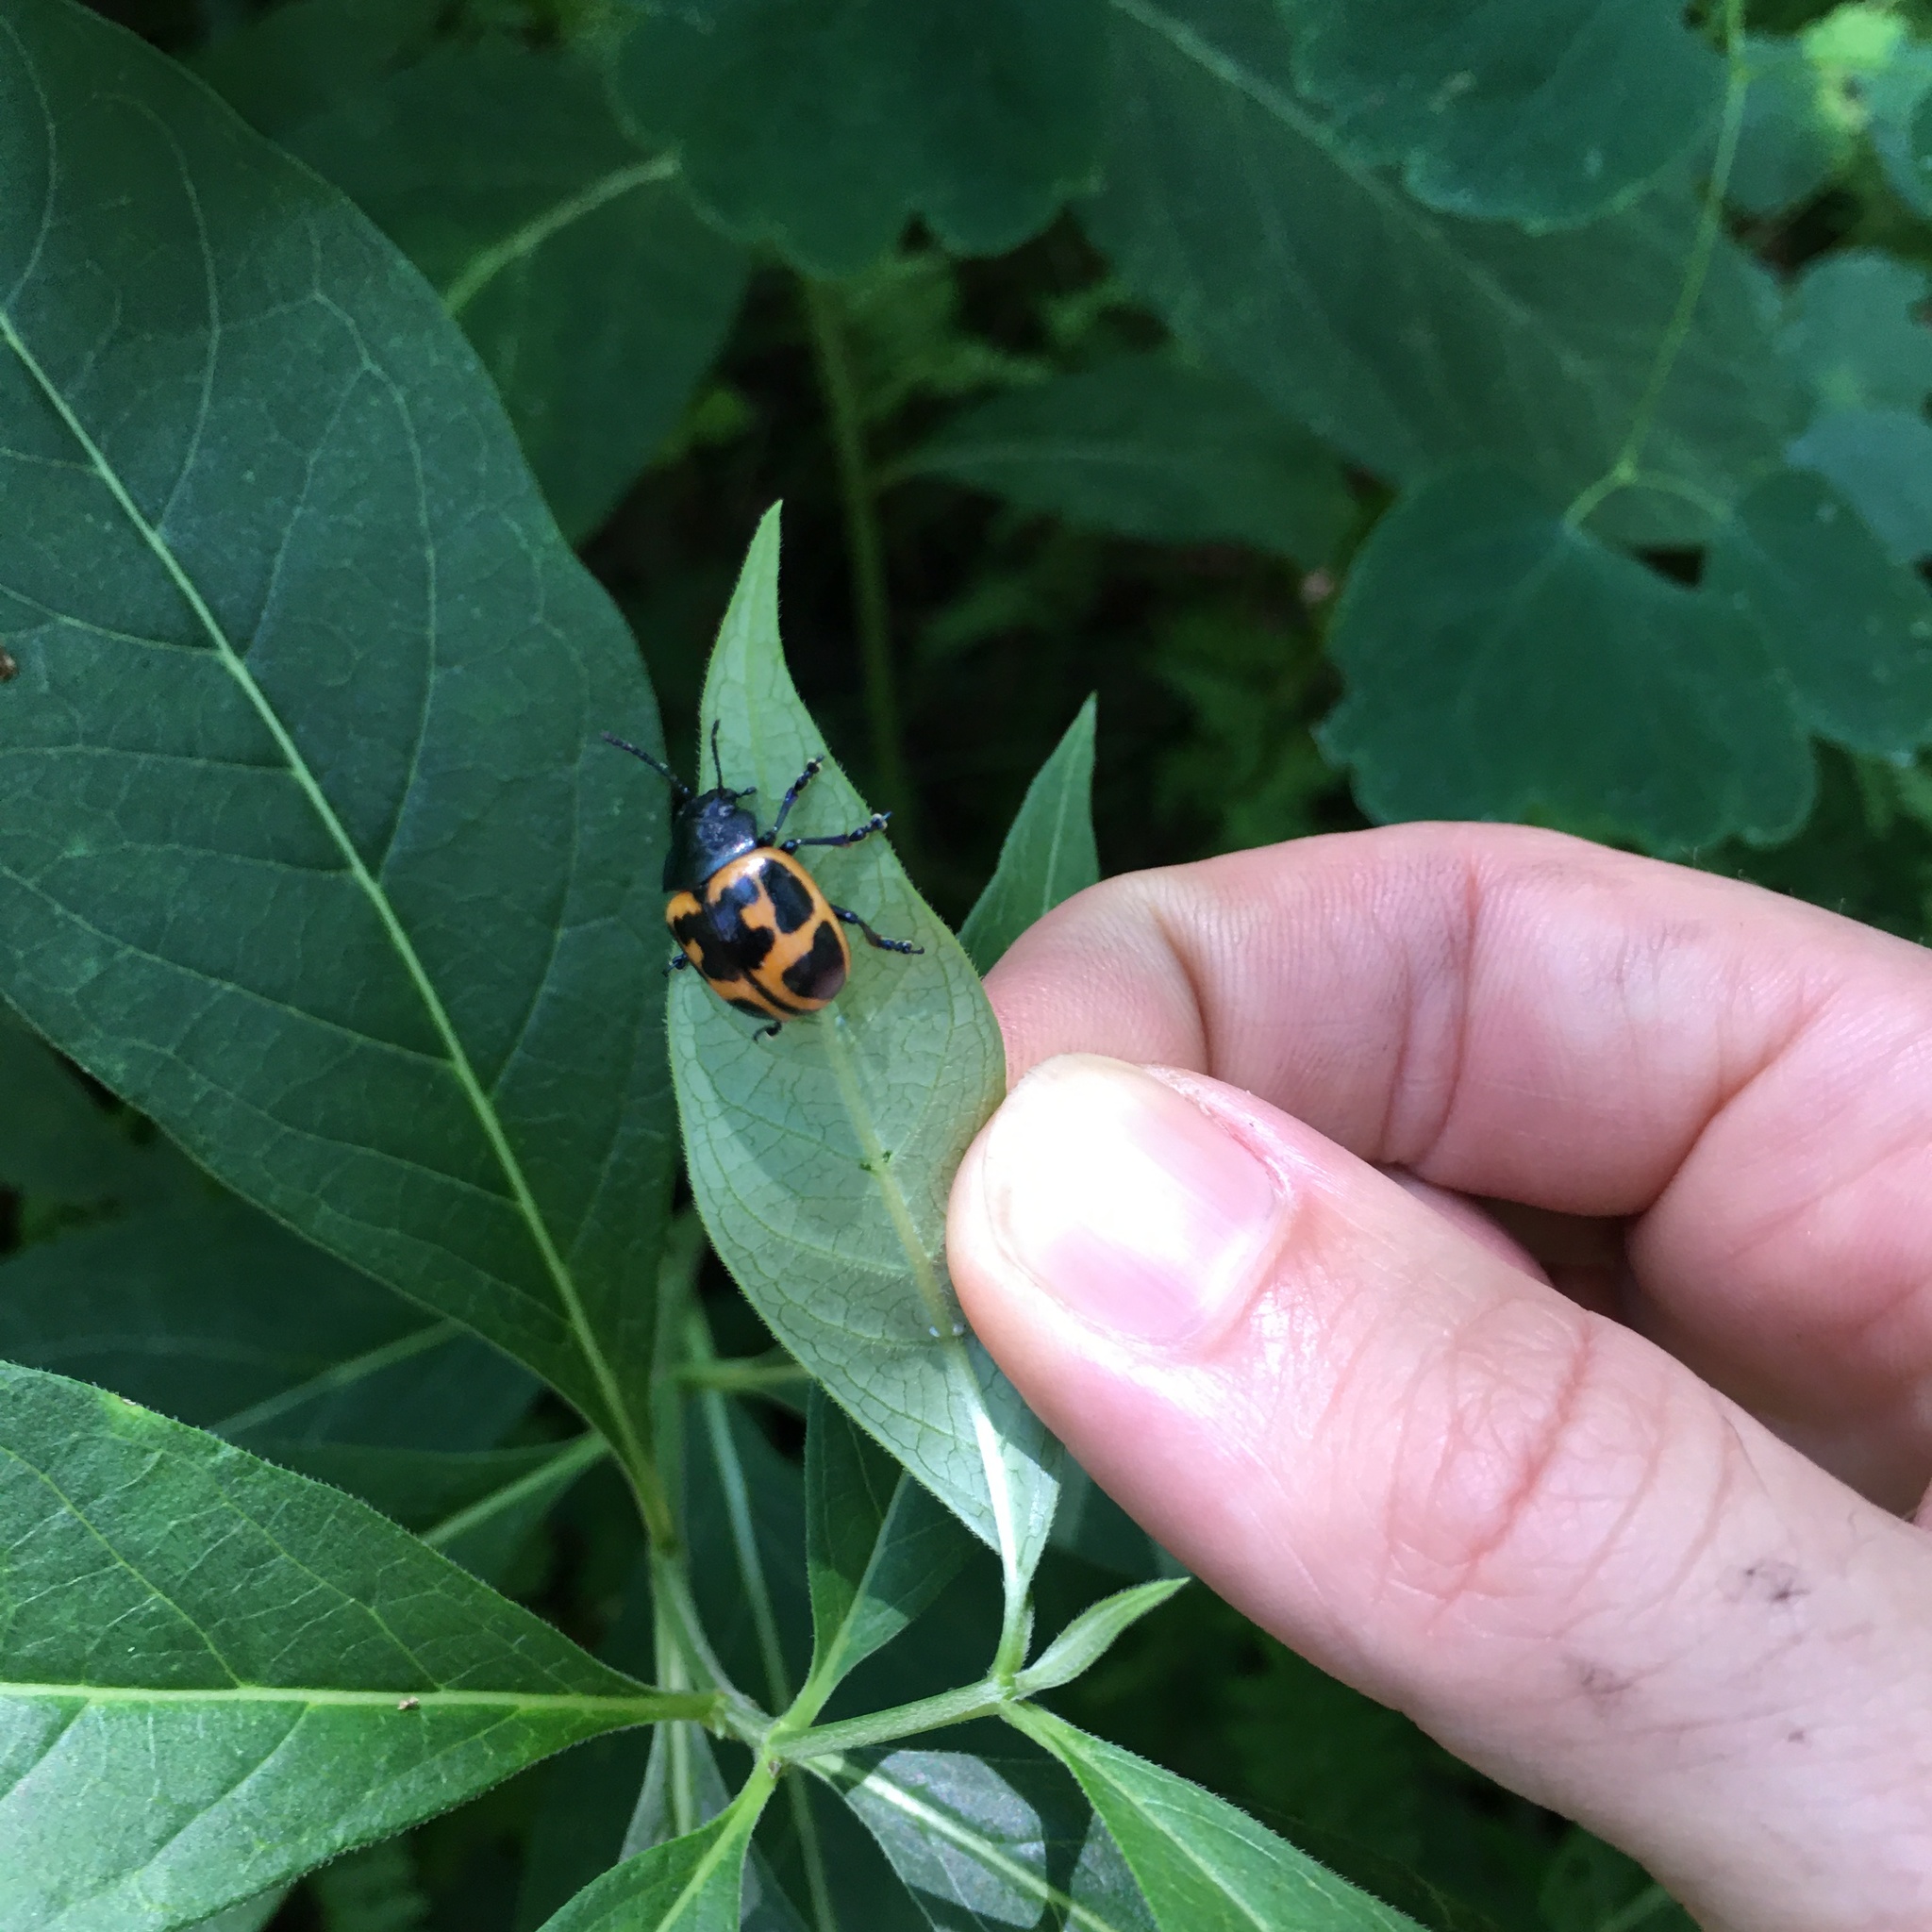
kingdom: Animalia
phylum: Arthropoda
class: Insecta
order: Coleoptera
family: Chrysomelidae
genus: Labidomera
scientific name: Labidomera clivicollis
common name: Swamp milkweed leaf beetle
